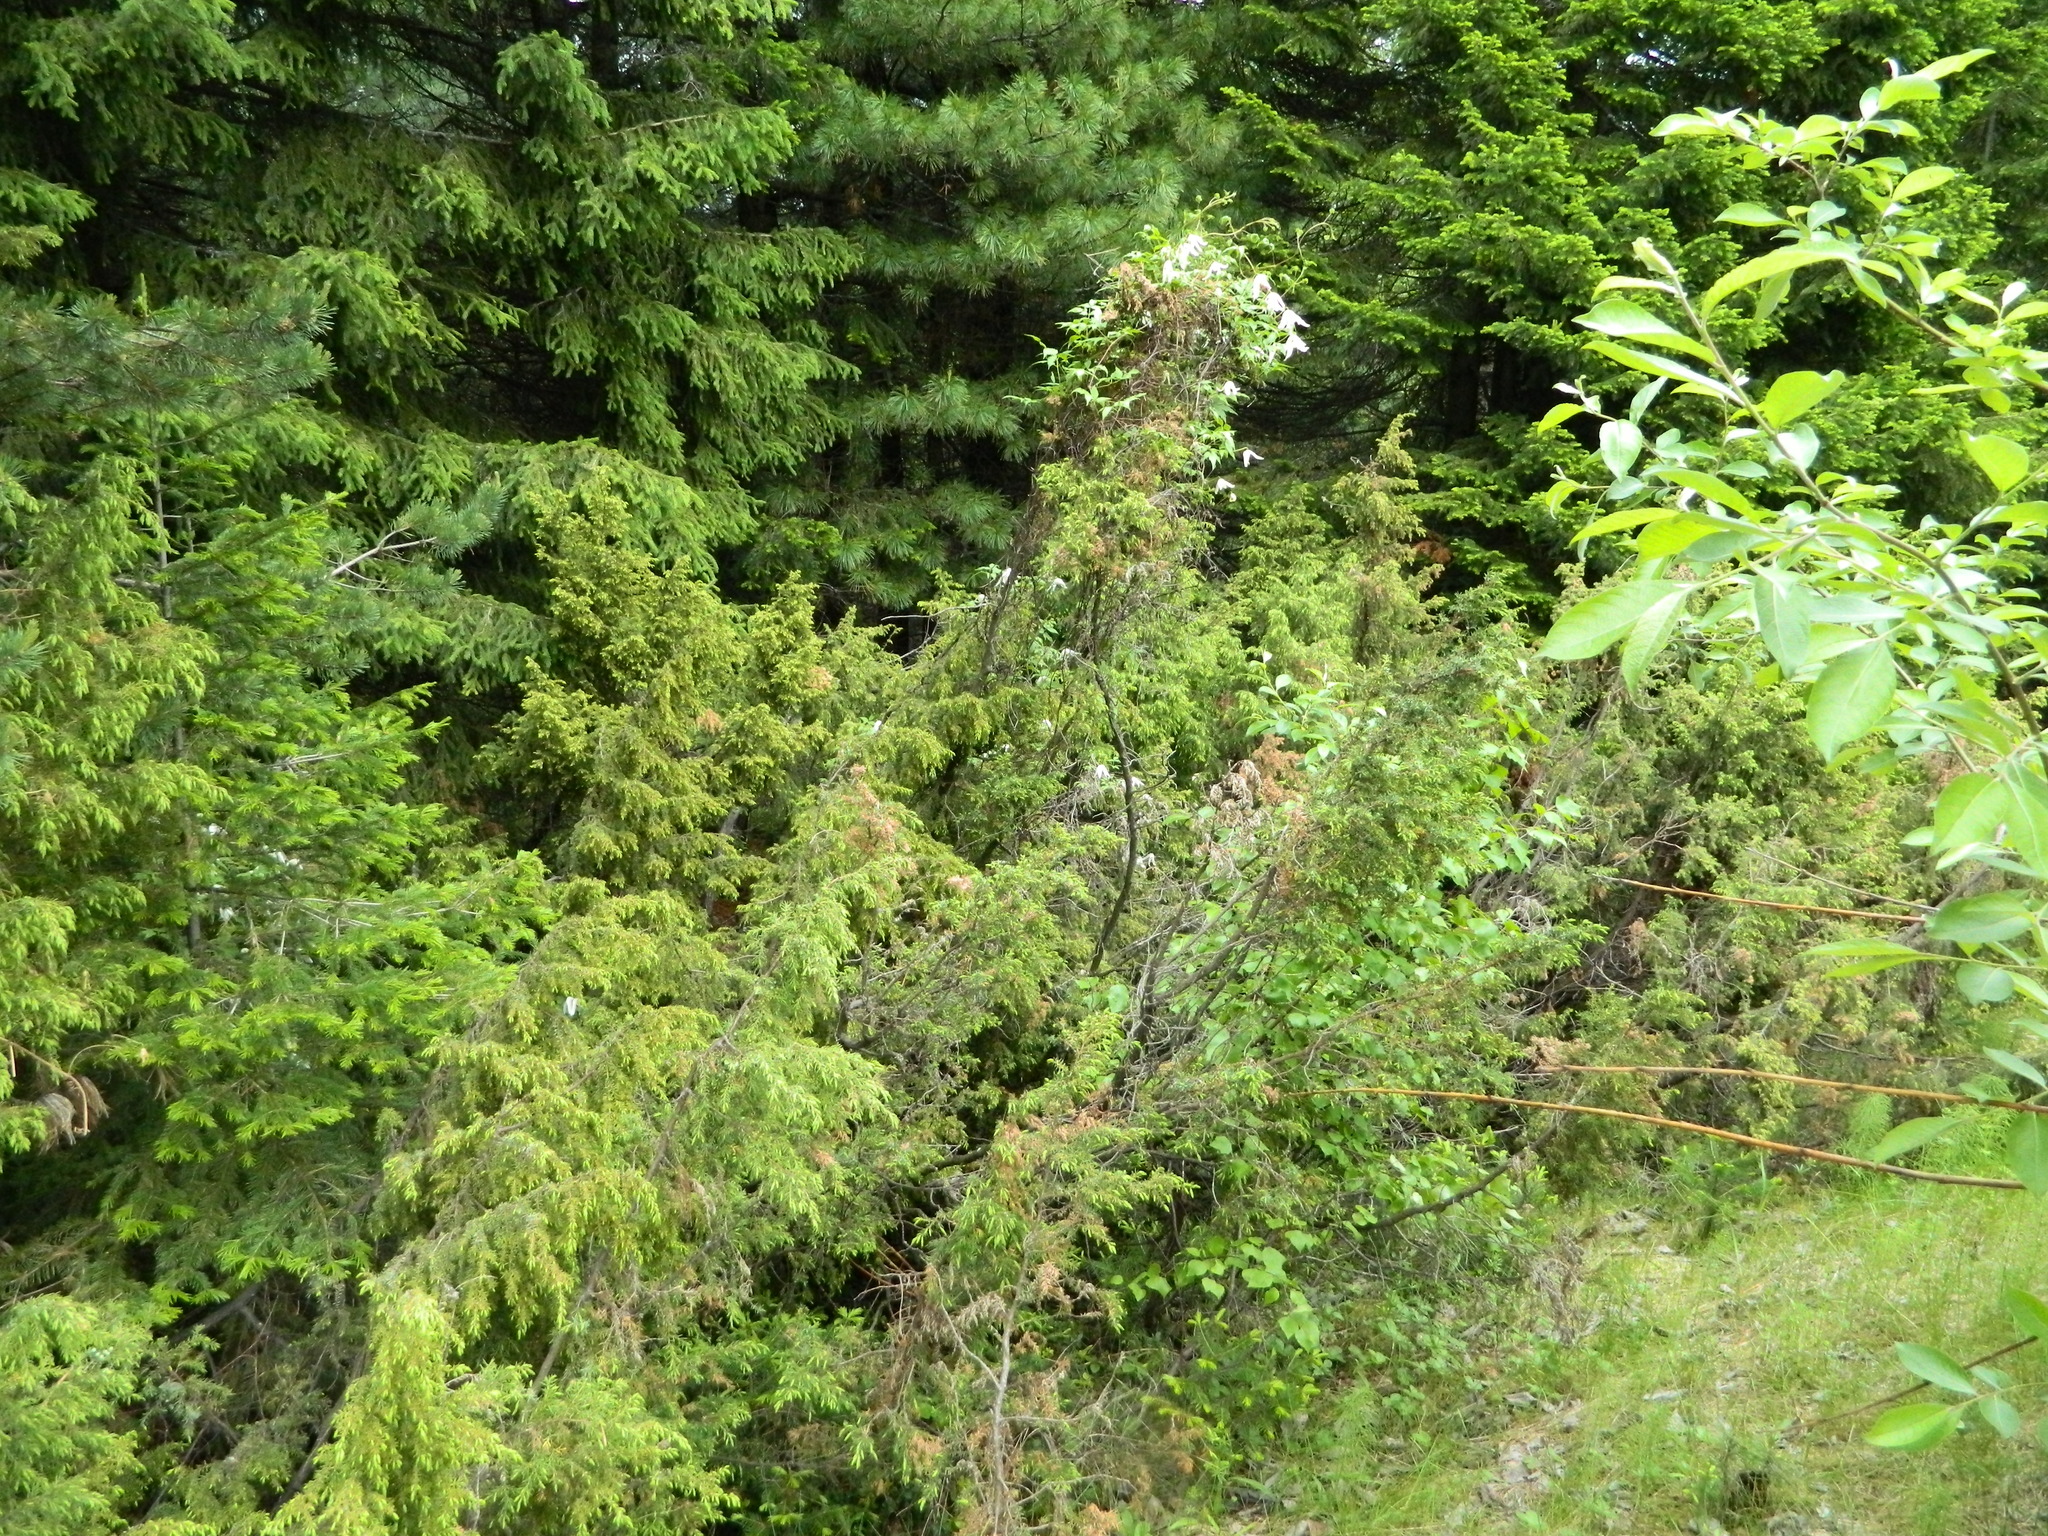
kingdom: Plantae
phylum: Tracheophyta
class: Pinopsida
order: Pinales
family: Cupressaceae
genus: Juniperus
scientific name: Juniperus communis
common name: Common juniper
